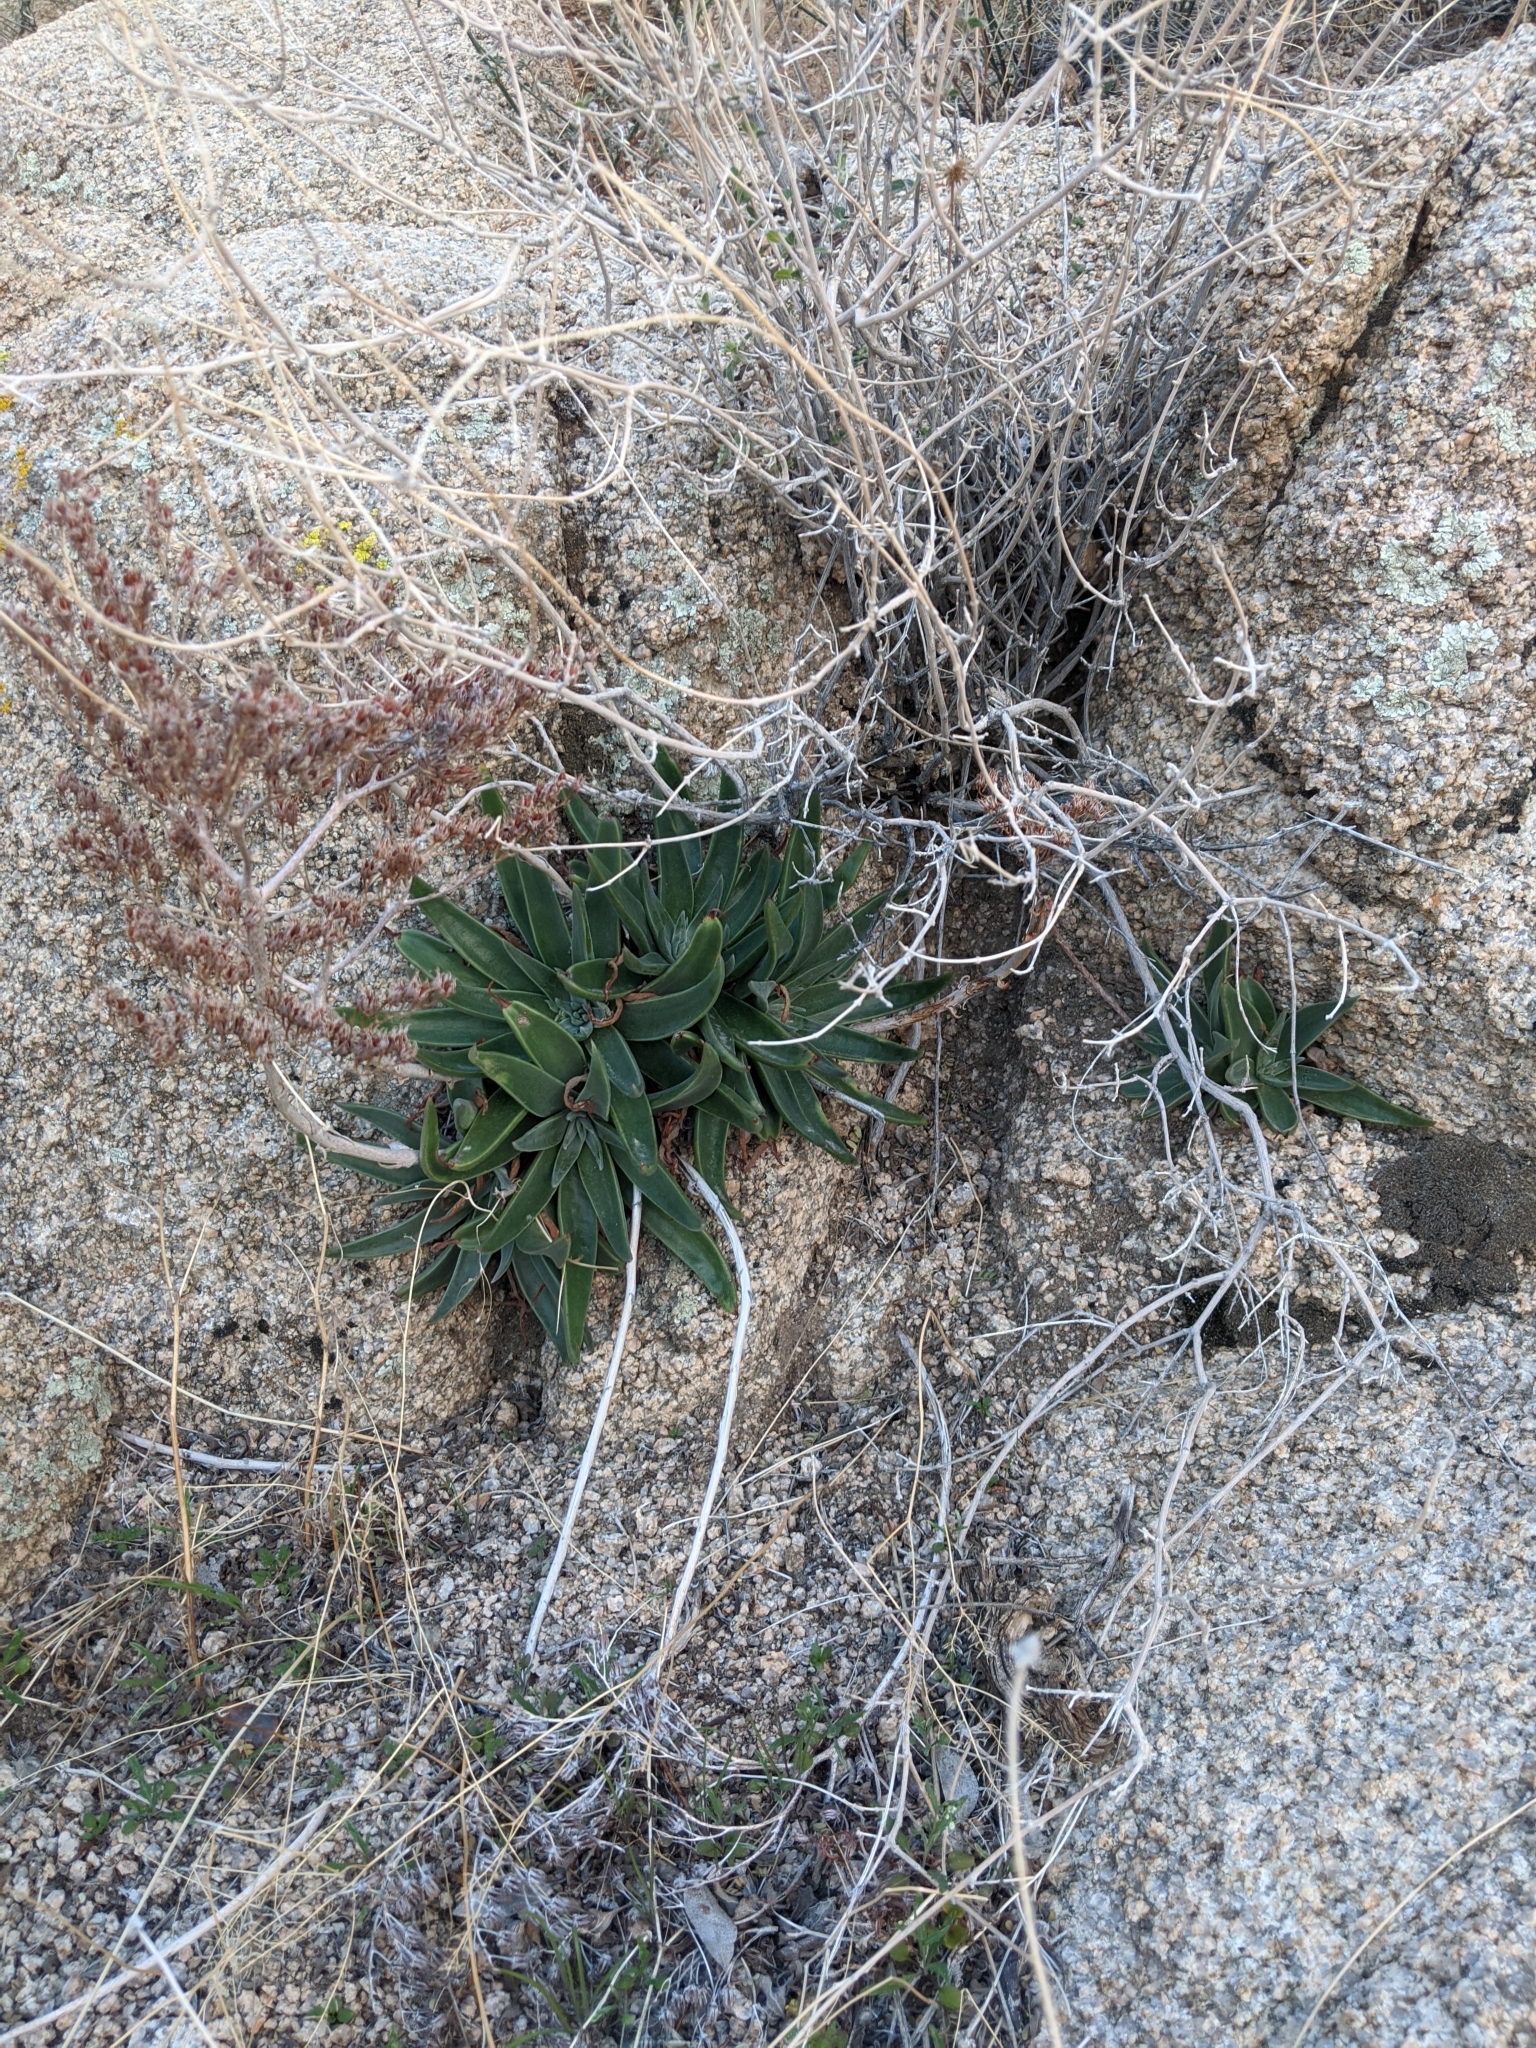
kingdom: Plantae
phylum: Tracheophyta
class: Magnoliopsida
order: Saxifragales
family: Crassulaceae
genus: Dudleya
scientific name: Dudleya saxosa
